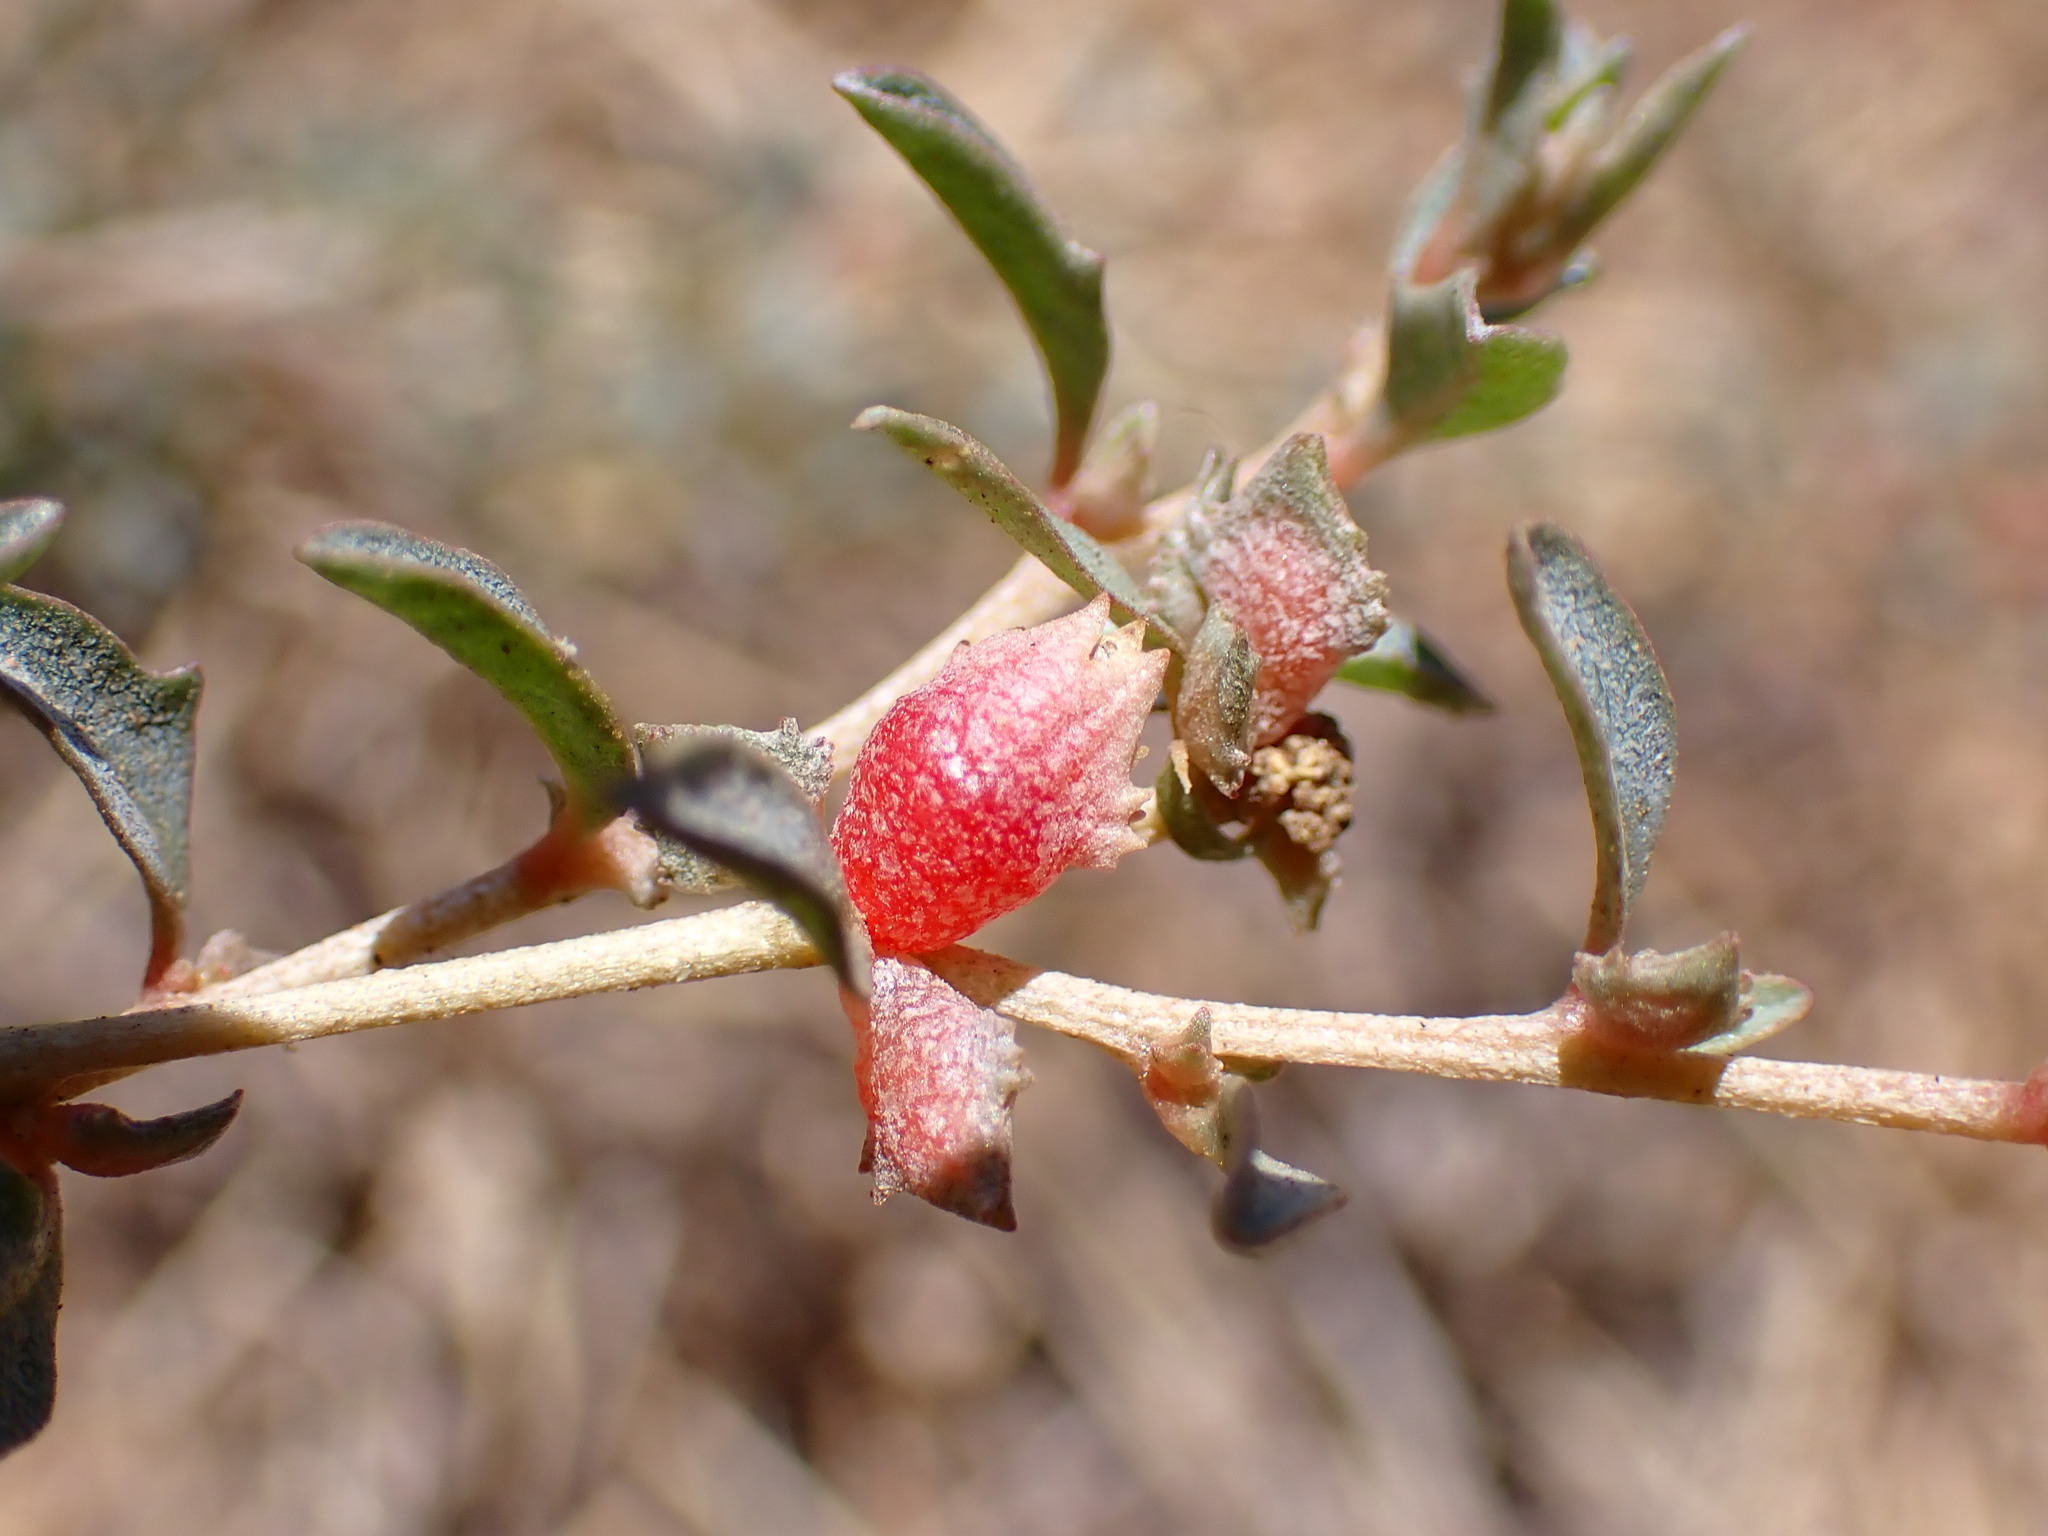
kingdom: Plantae
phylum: Tracheophyta
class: Magnoliopsida
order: Caryophyllales
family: Amaranthaceae
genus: Atriplex
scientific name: Atriplex semibaccata
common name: Australian saltbush
